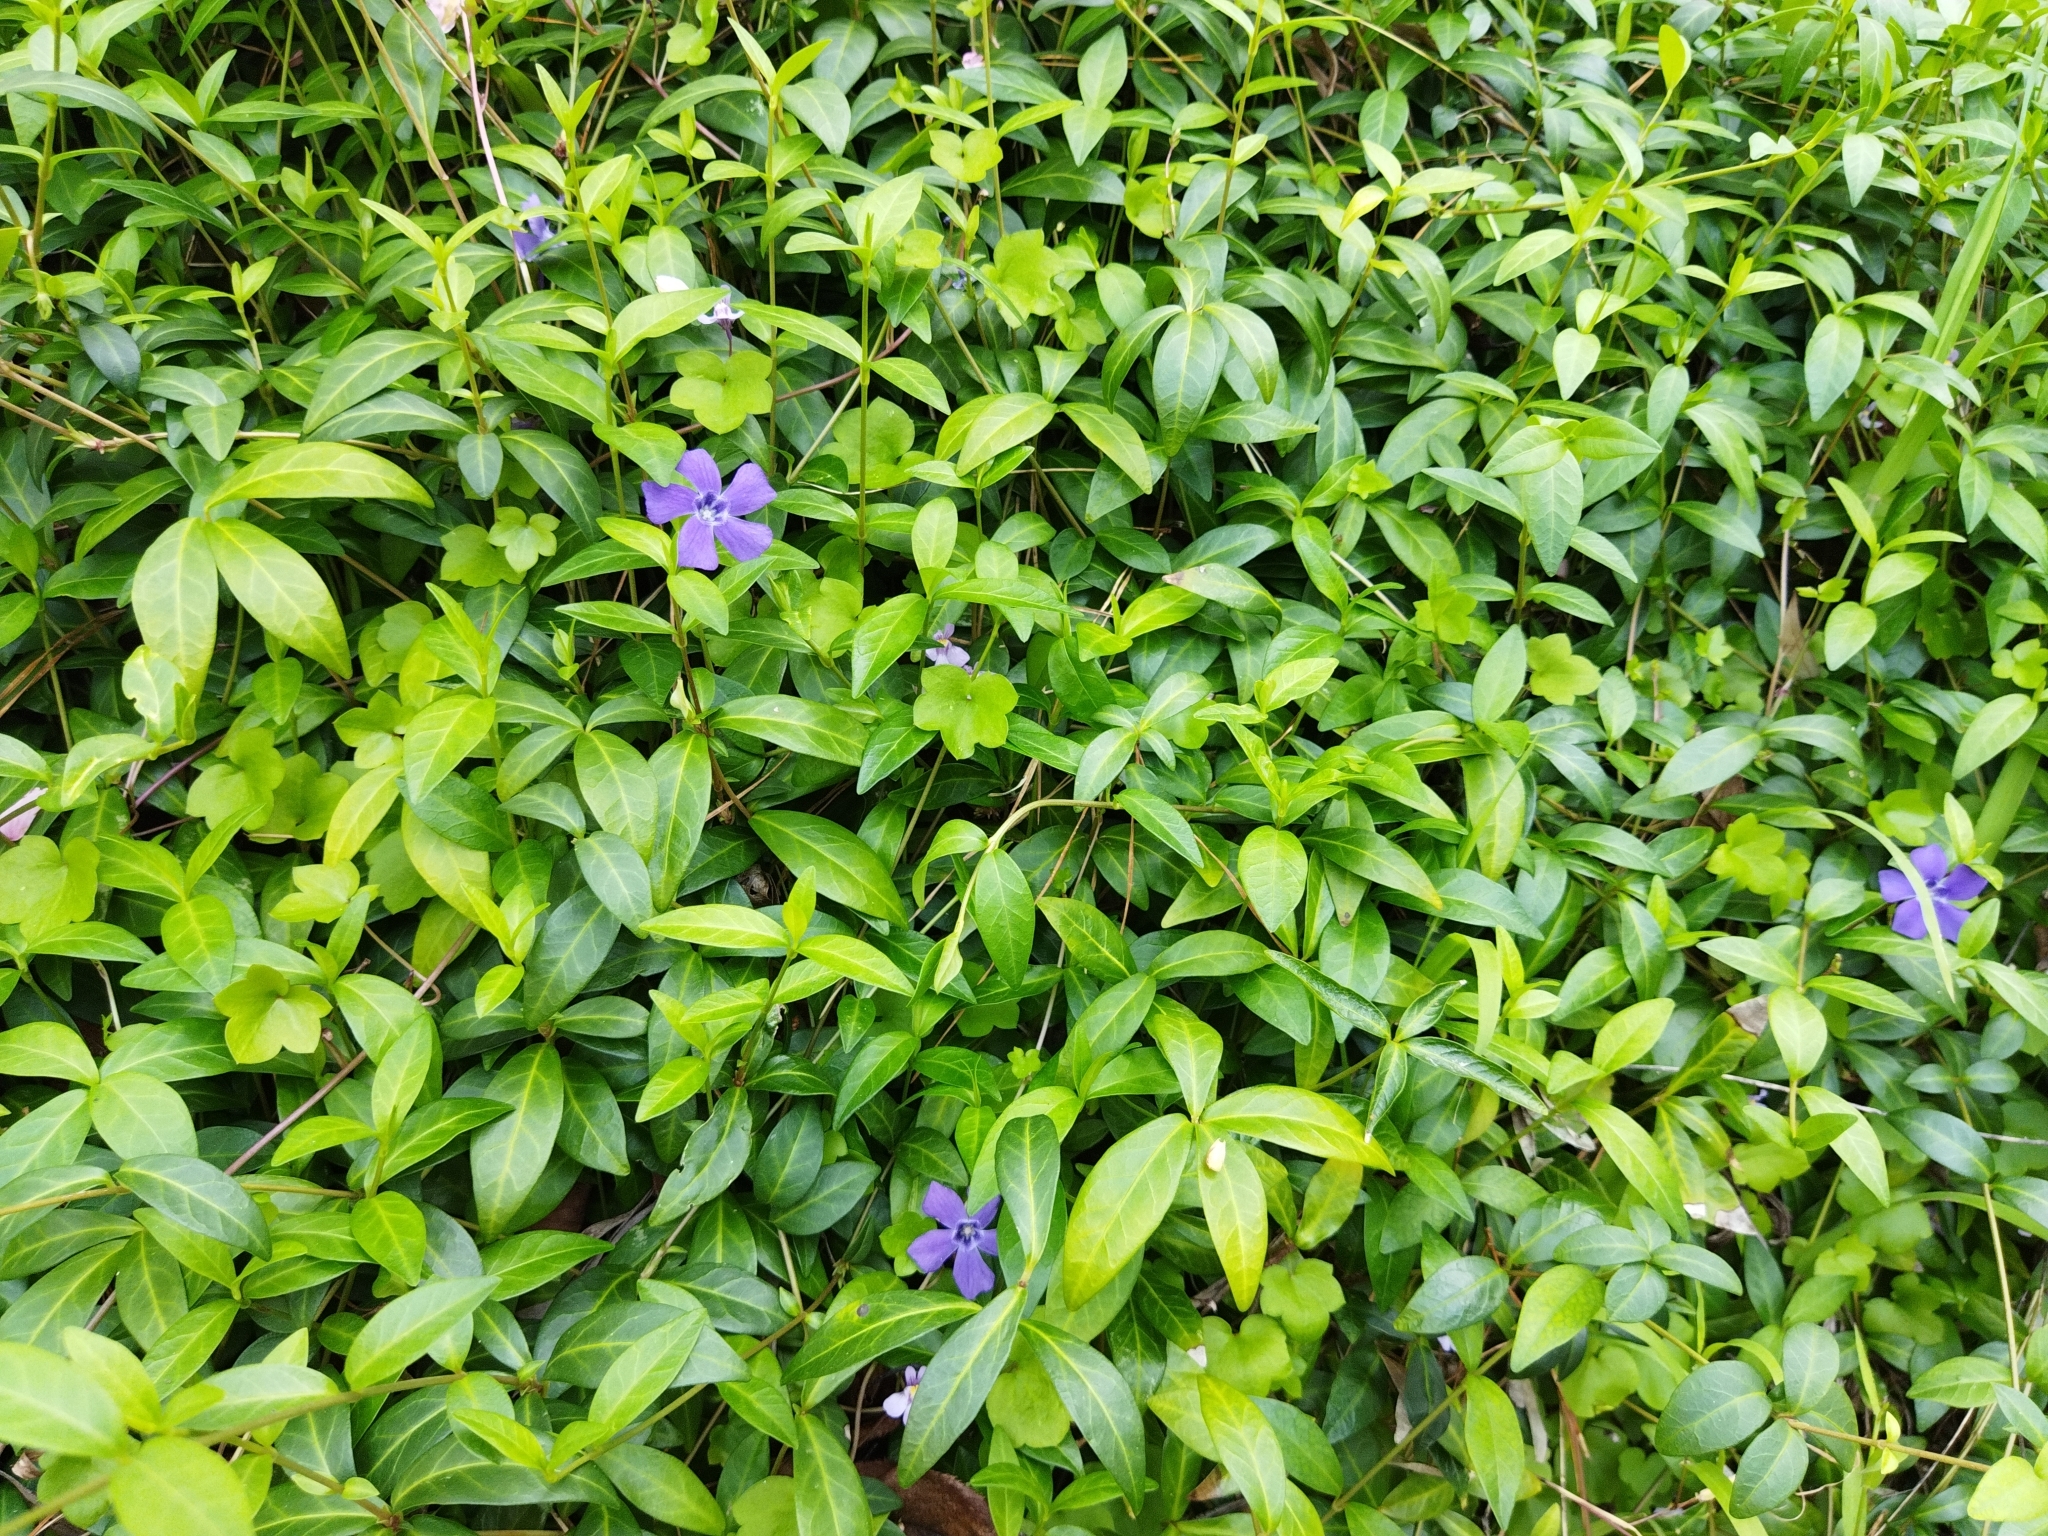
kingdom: Plantae
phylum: Tracheophyta
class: Magnoliopsida
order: Gentianales
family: Apocynaceae
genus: Vinca
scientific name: Vinca minor
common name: Lesser periwinkle
